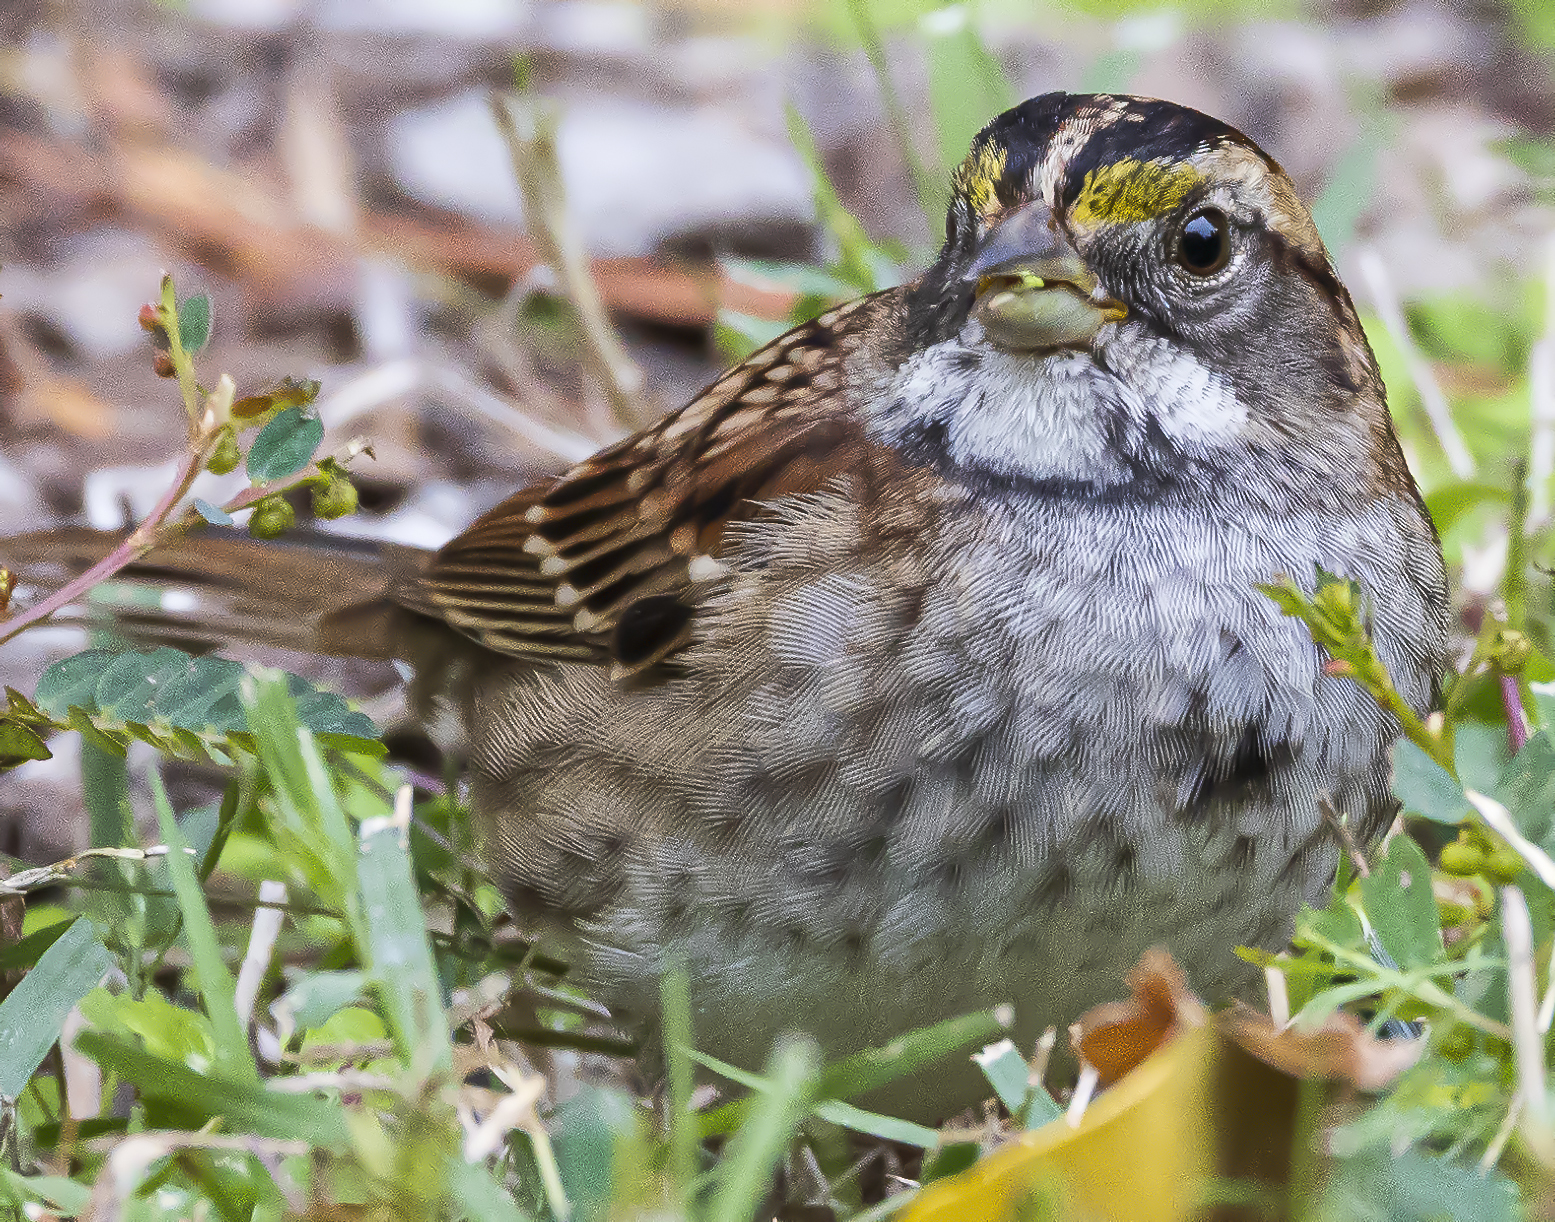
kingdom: Animalia
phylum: Chordata
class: Aves
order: Passeriformes
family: Passerellidae
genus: Zonotrichia
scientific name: Zonotrichia albicollis
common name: White-throated sparrow
